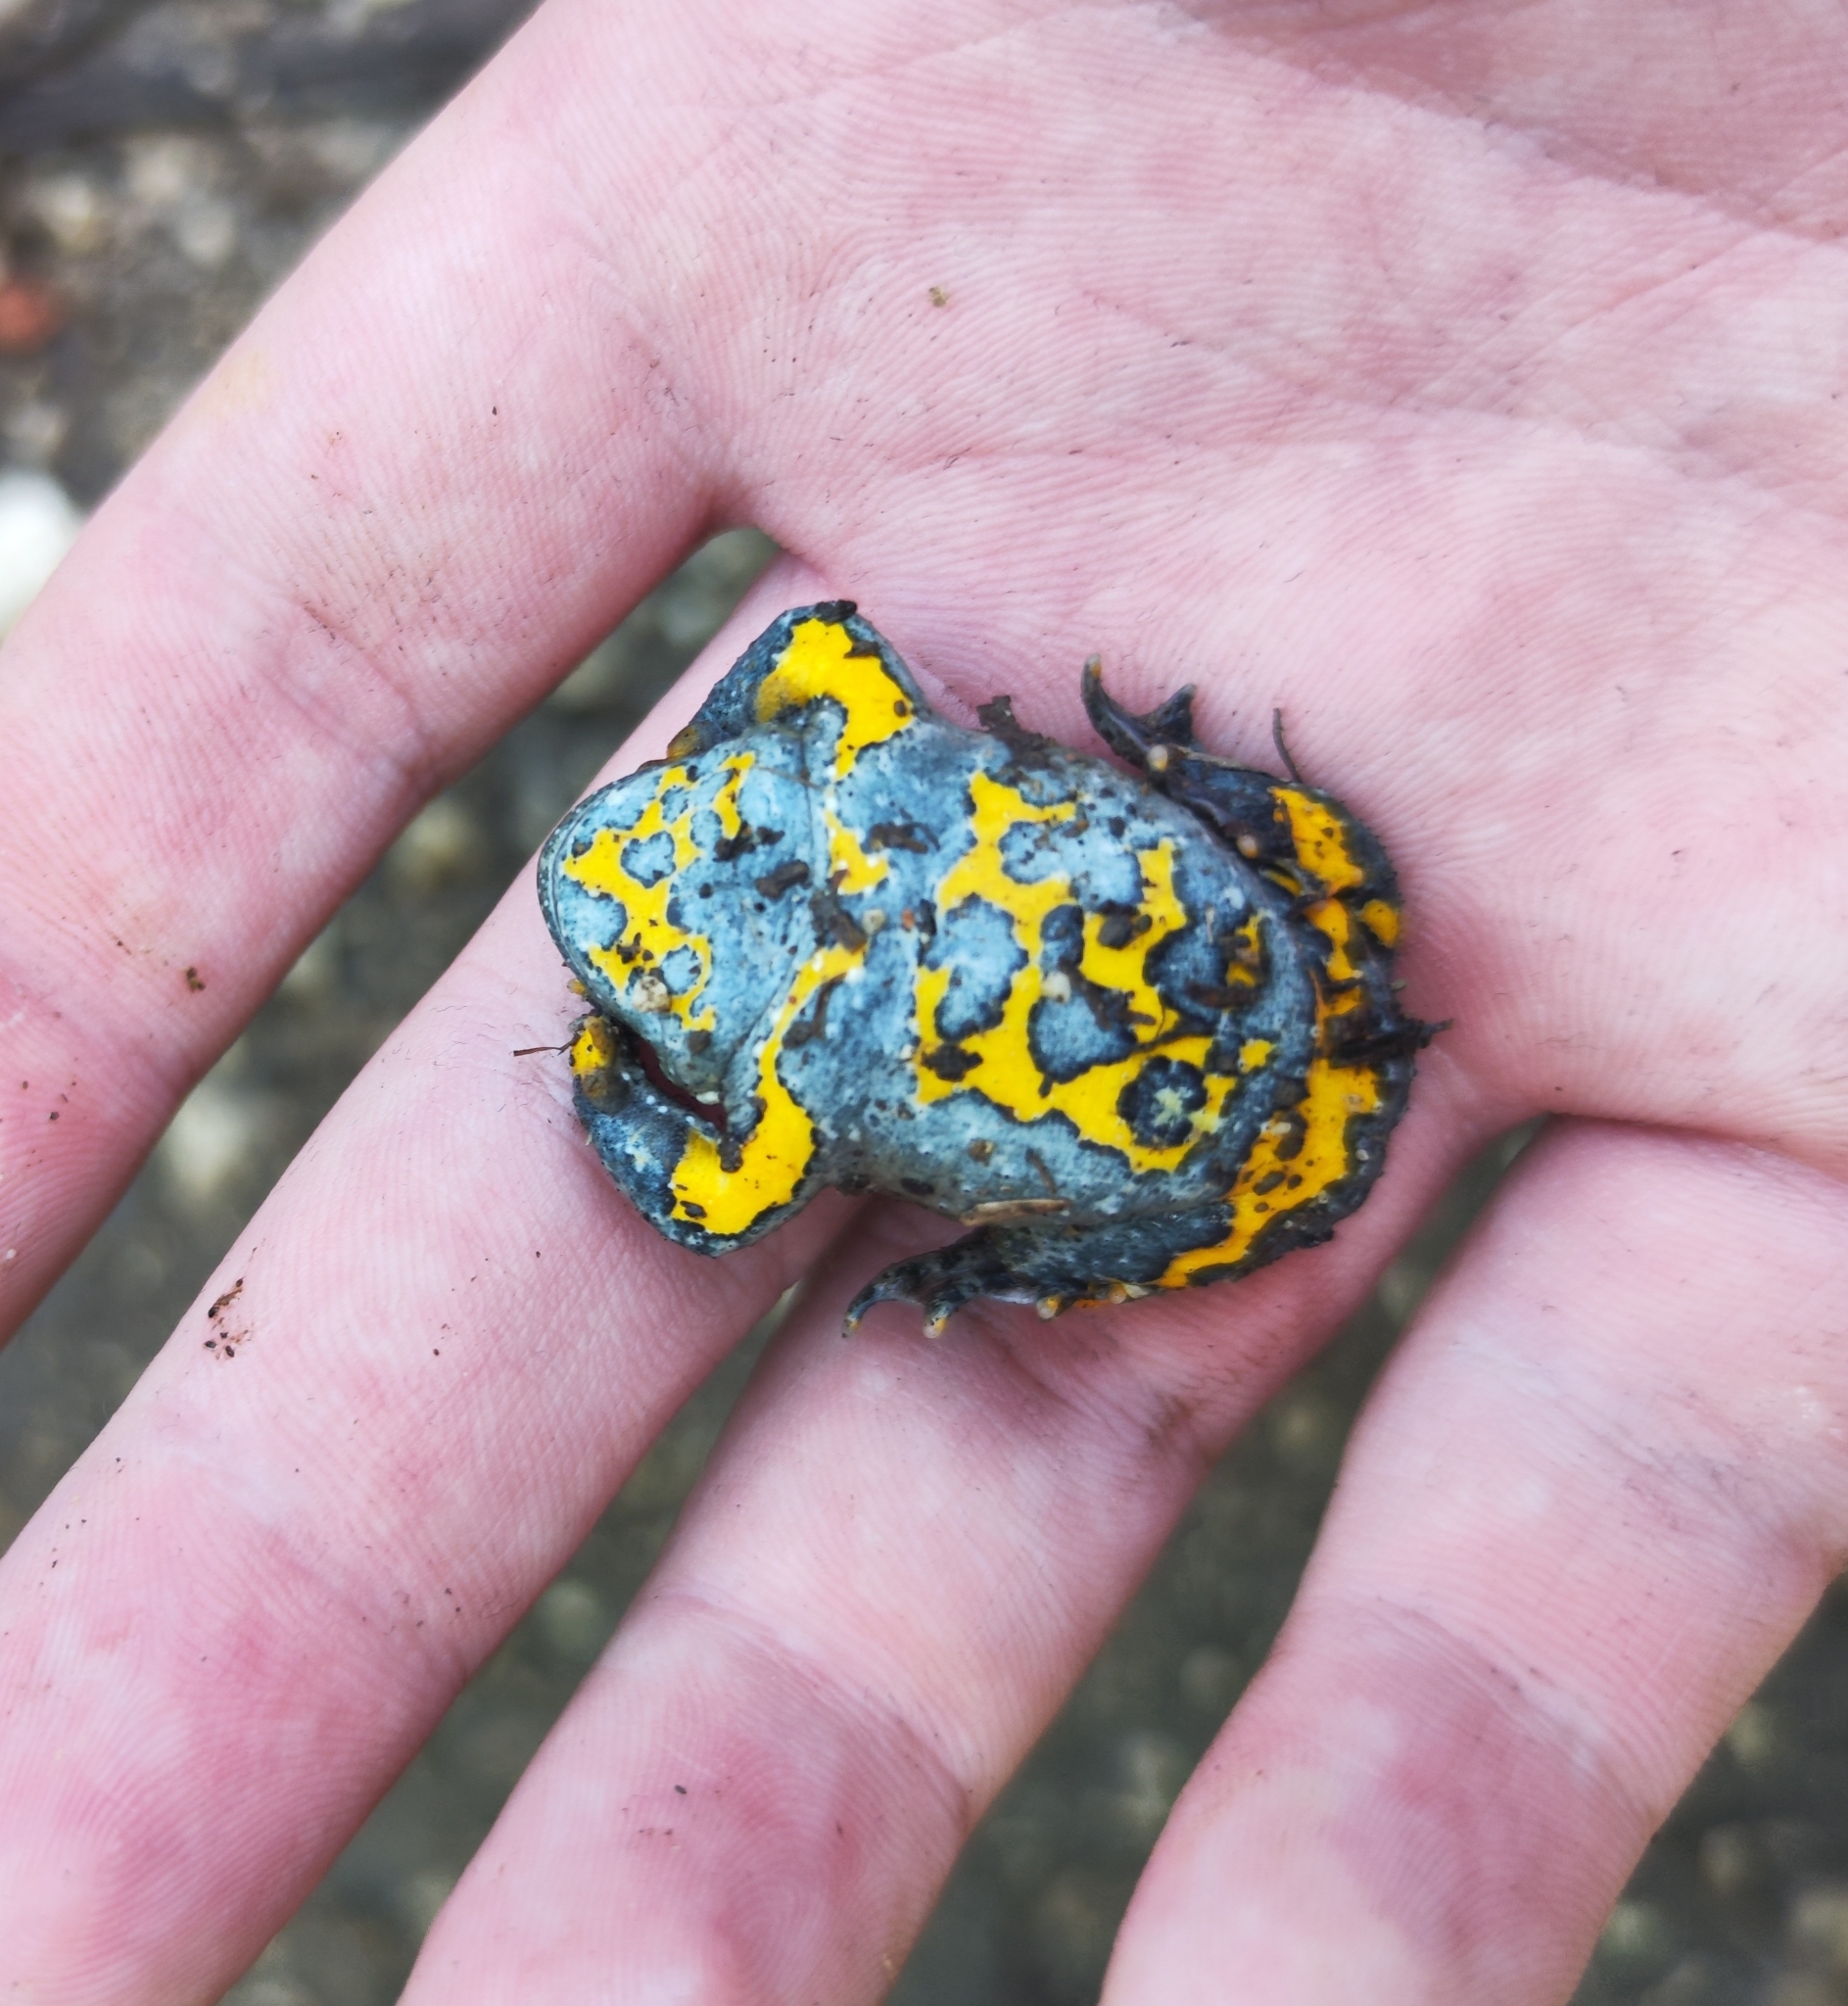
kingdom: Animalia
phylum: Chordata
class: Amphibia
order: Anura
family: Bombinatoridae
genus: Bombina
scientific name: Bombina variegata
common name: Yellow-bellied toad
